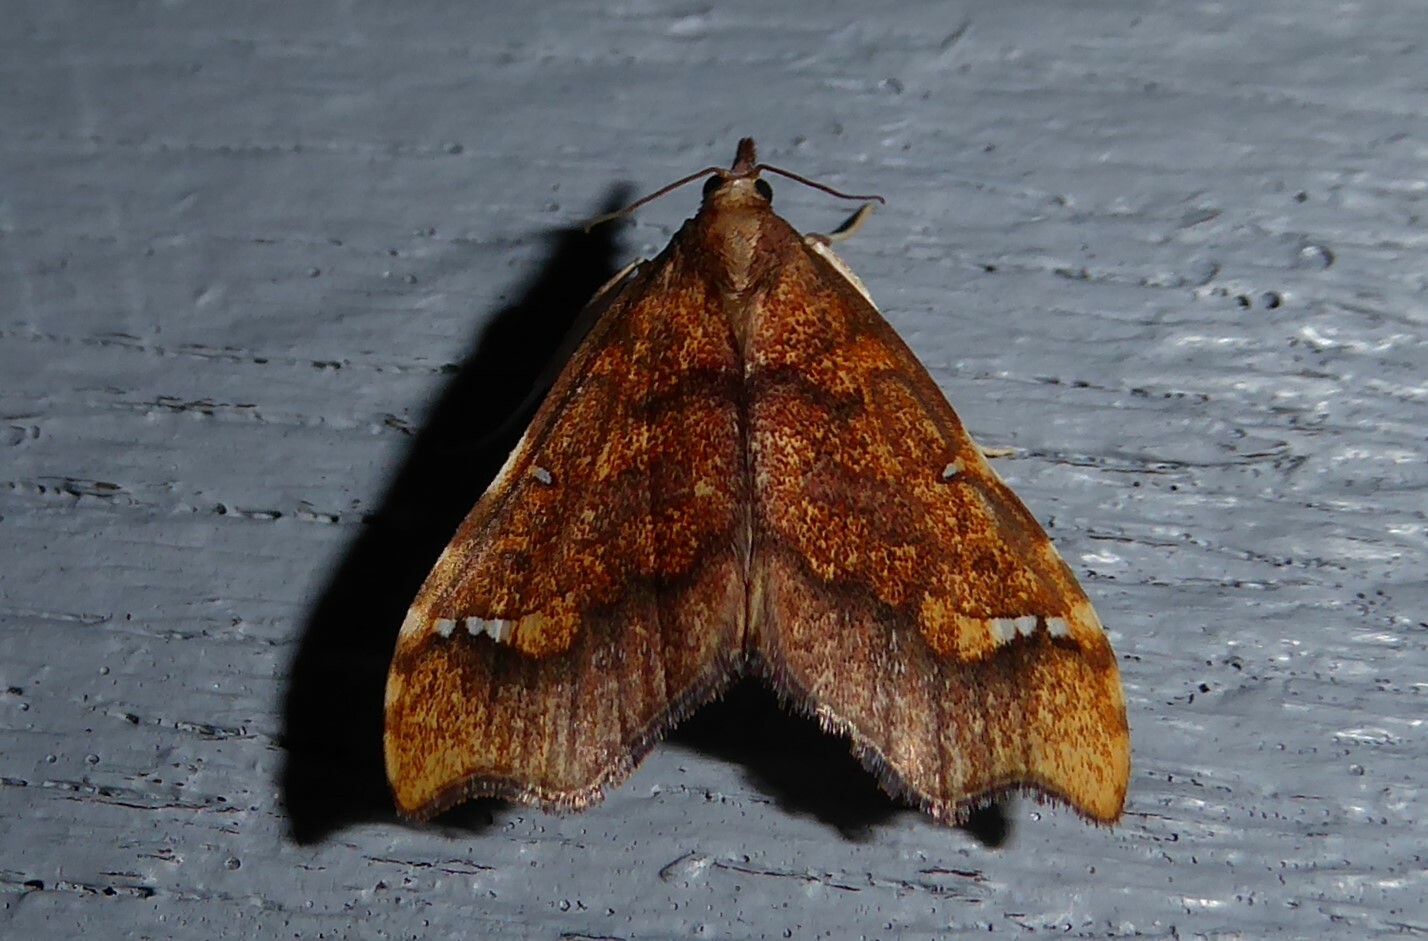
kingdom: Animalia
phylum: Arthropoda
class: Insecta
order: Lepidoptera
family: Crambidae
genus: Deana
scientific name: Deana hybreasalis
